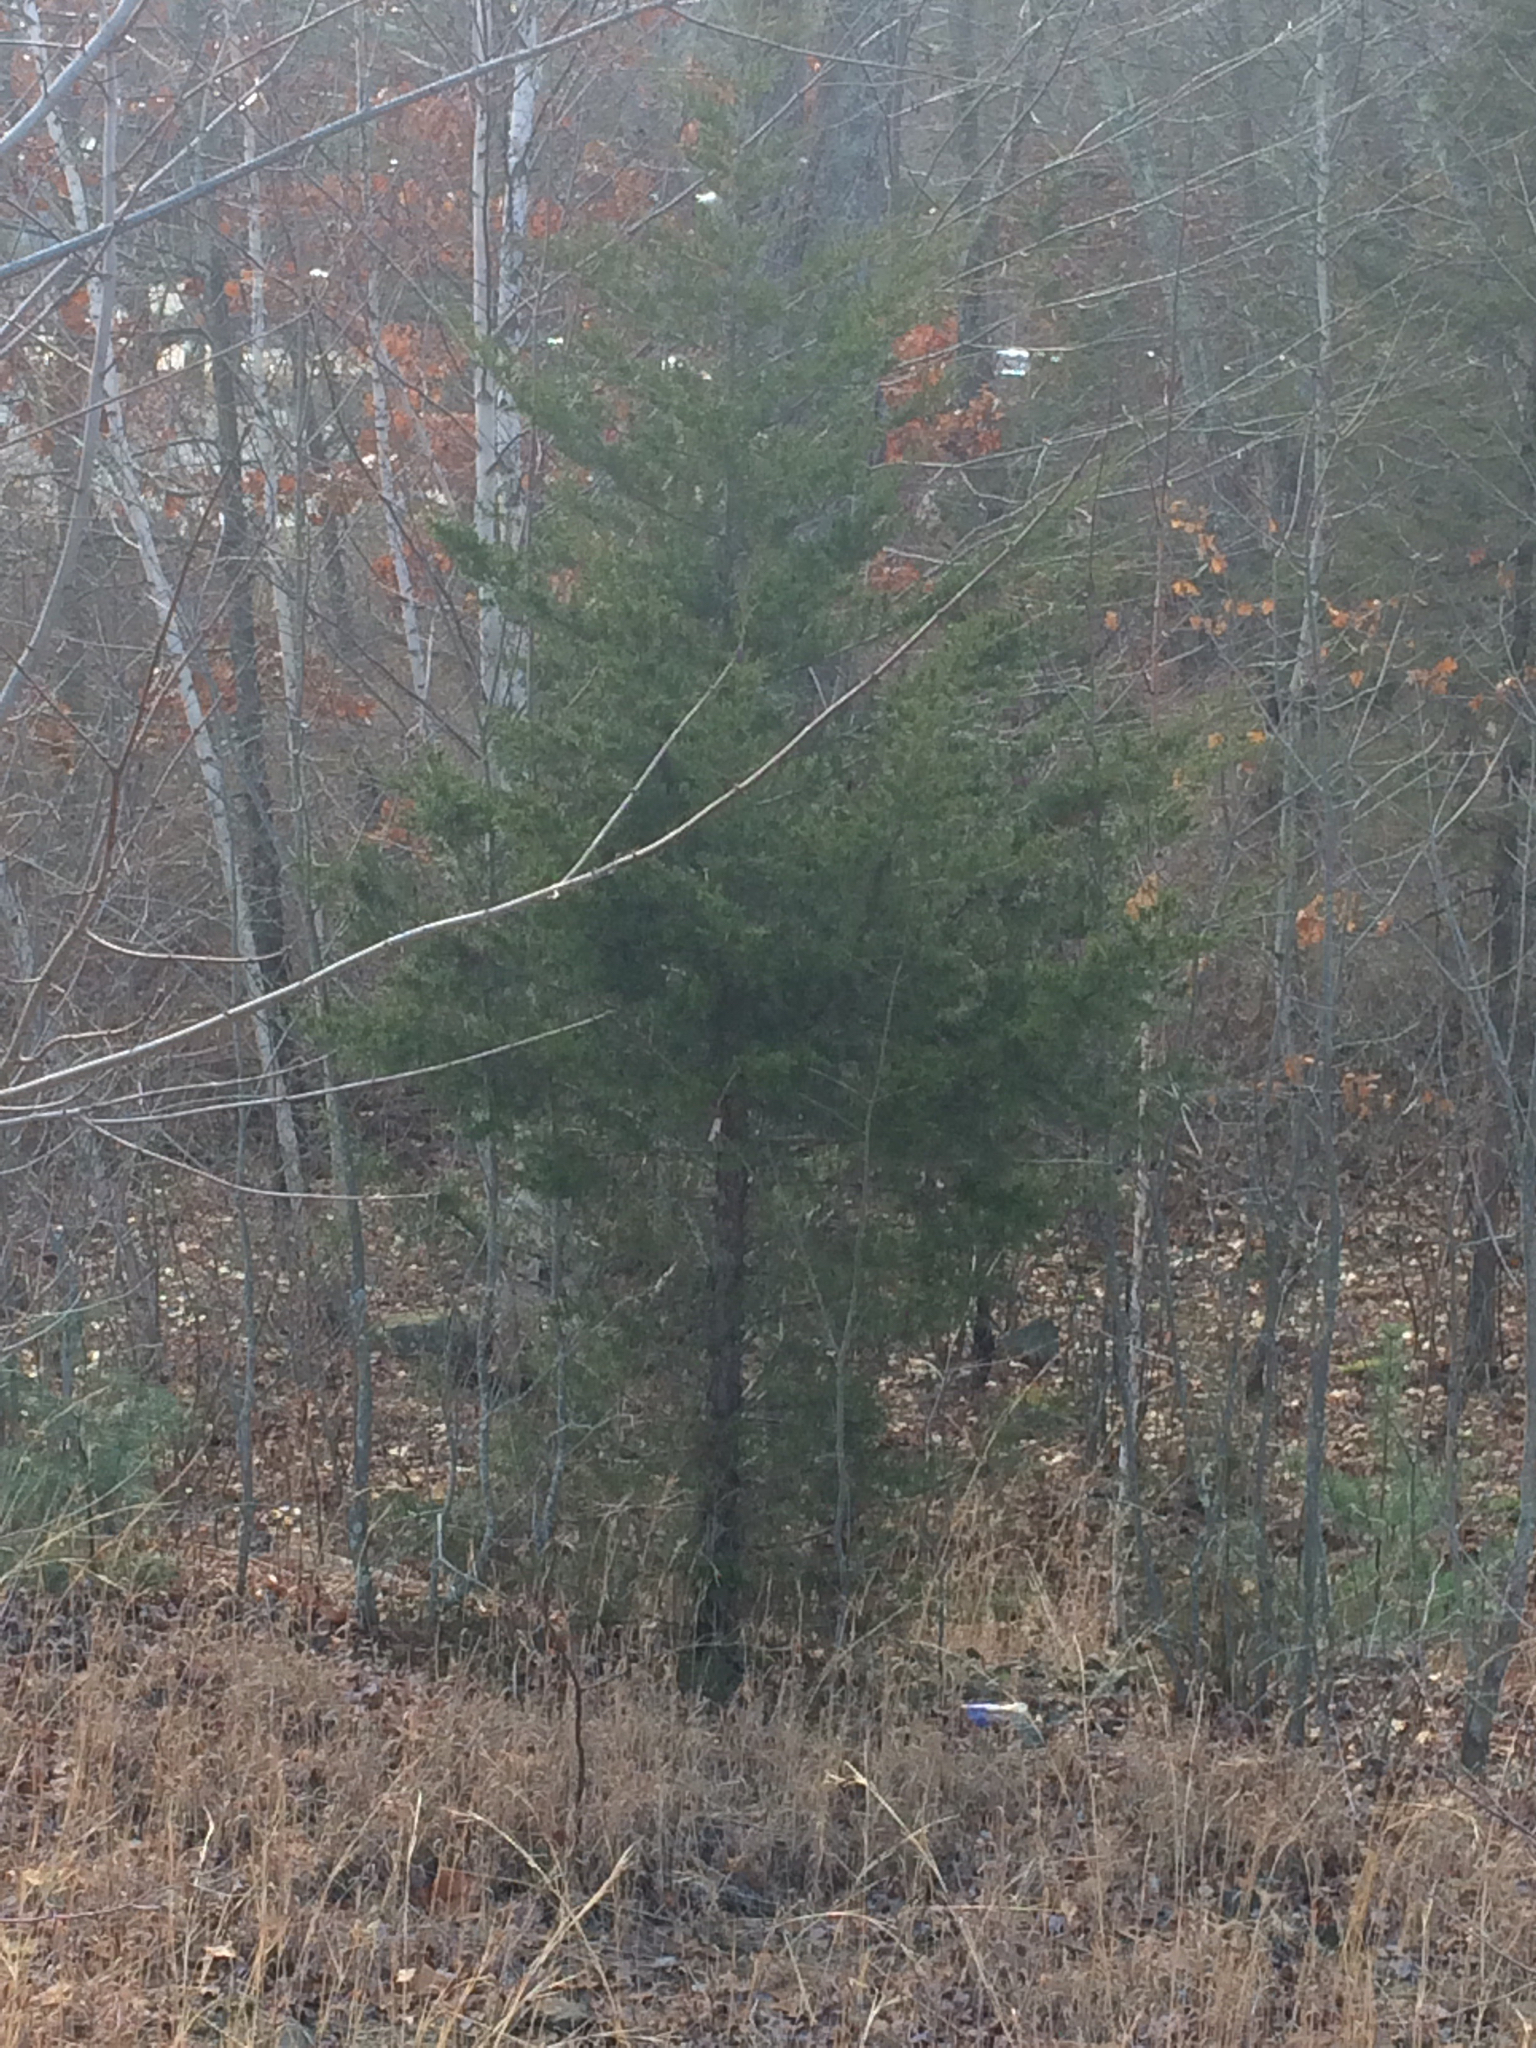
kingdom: Plantae
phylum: Tracheophyta
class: Pinopsida
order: Pinales
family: Cupressaceae
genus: Juniperus
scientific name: Juniperus virginiana
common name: Red juniper
